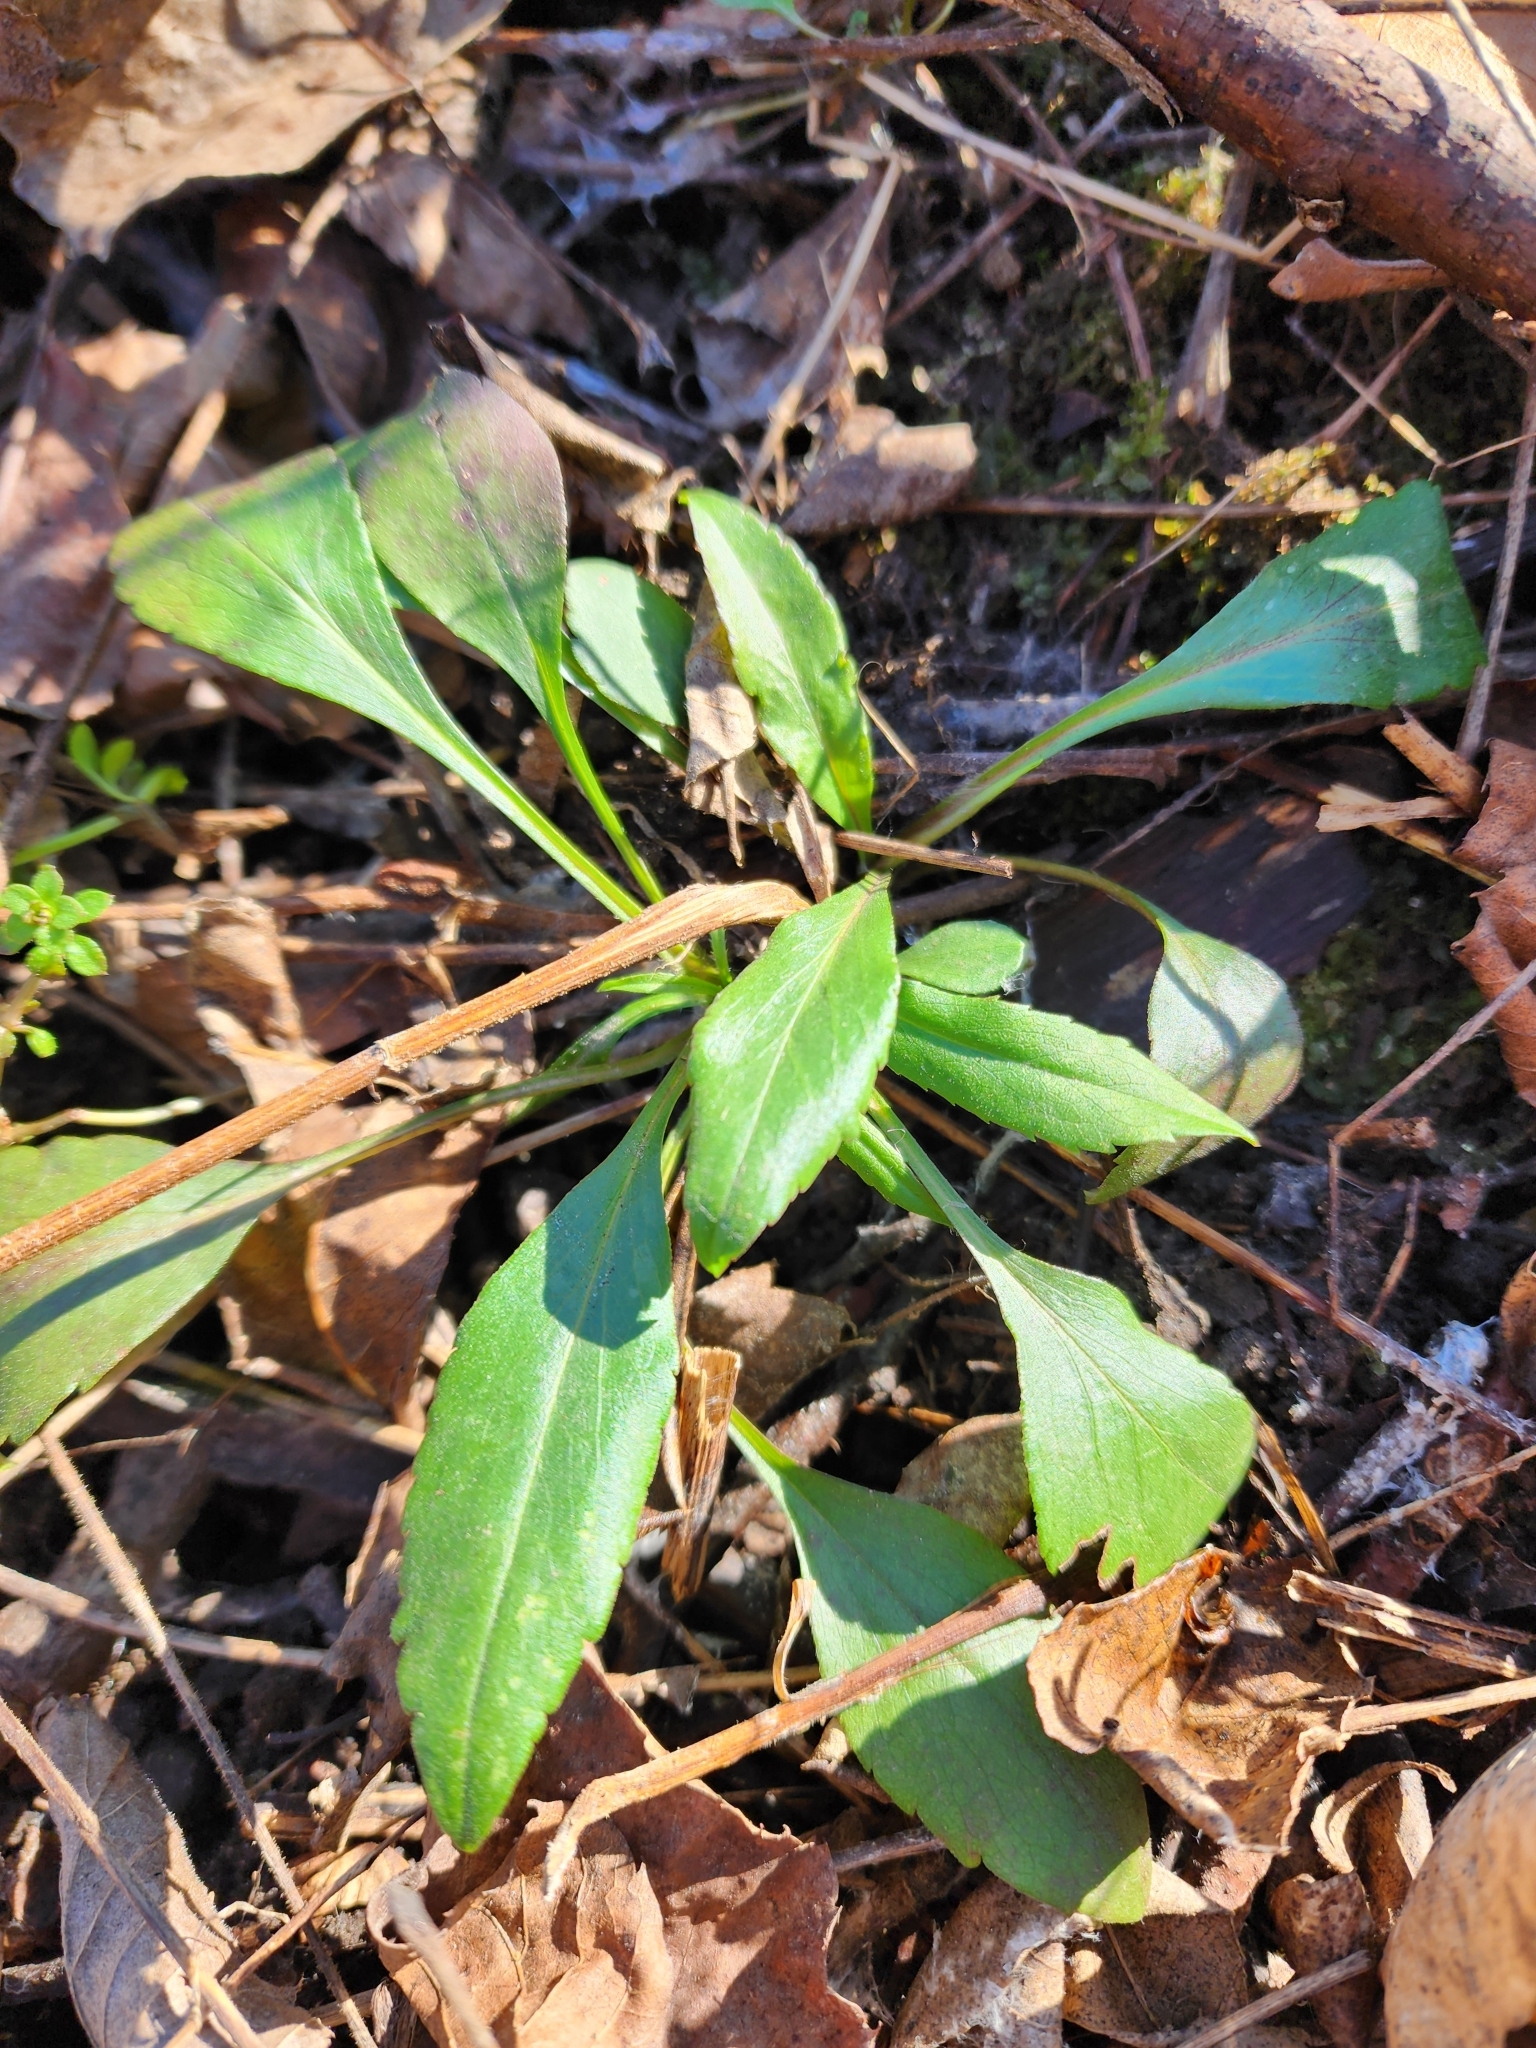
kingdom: Plantae
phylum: Tracheophyta
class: Magnoliopsida
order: Brassicales
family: Brassicaceae
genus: Hesperis
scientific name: Hesperis matronalis
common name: Dame's-violet
